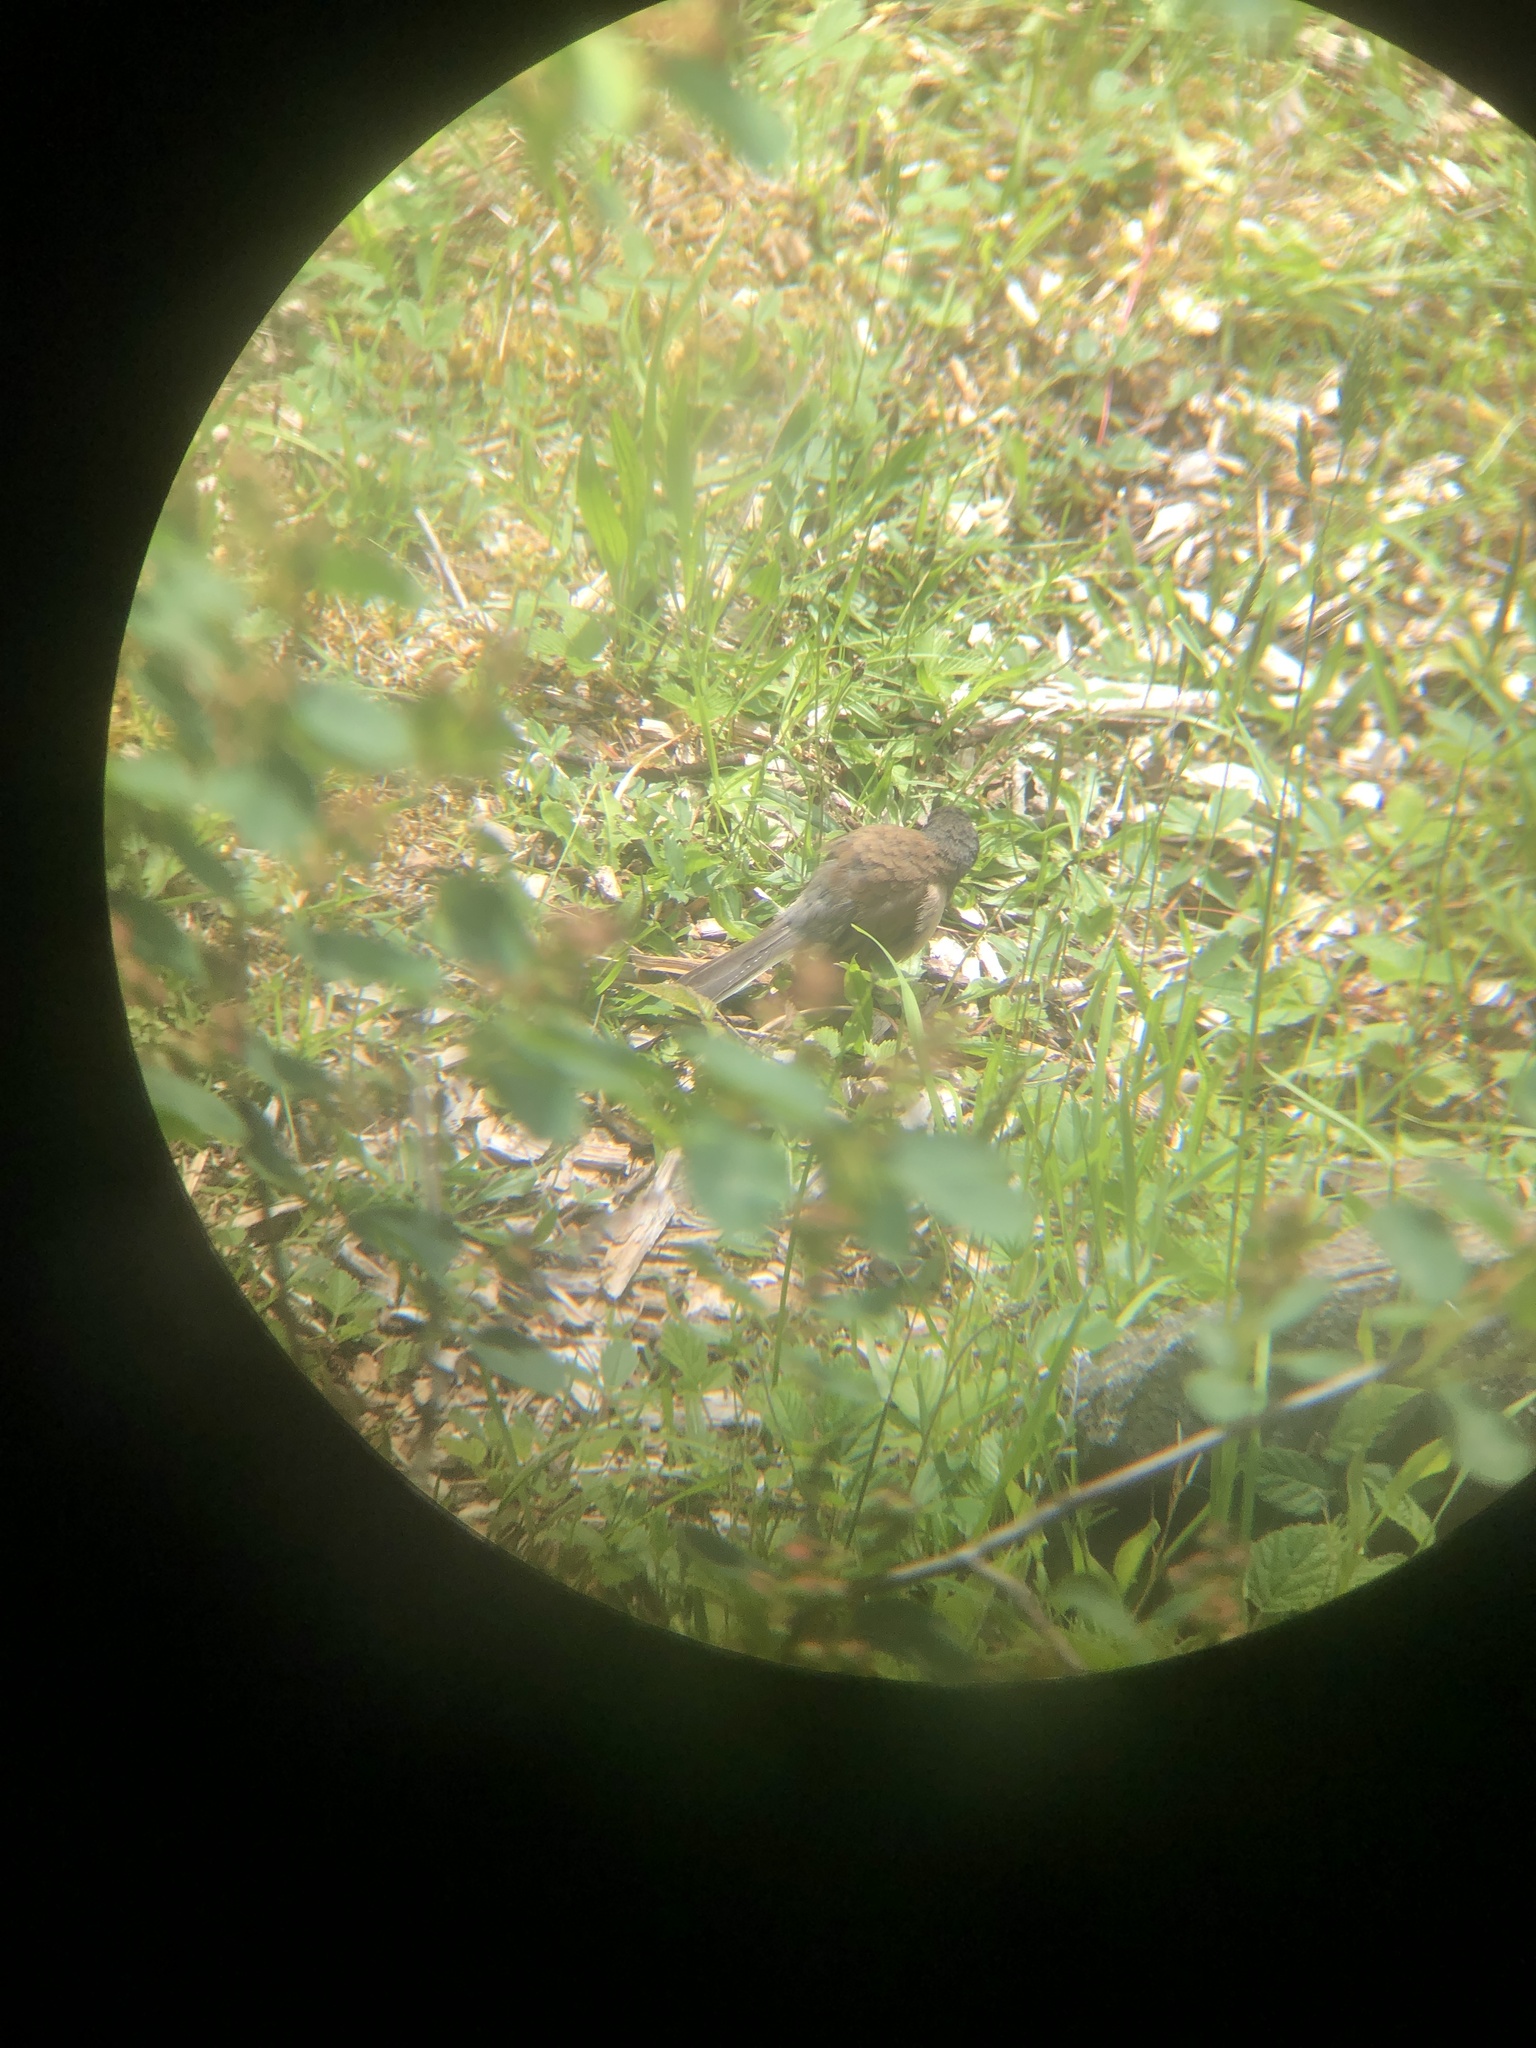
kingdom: Animalia
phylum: Chordata
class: Aves
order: Passeriformes
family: Passerellidae
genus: Junco
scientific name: Junco hyemalis
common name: Dark-eyed junco
